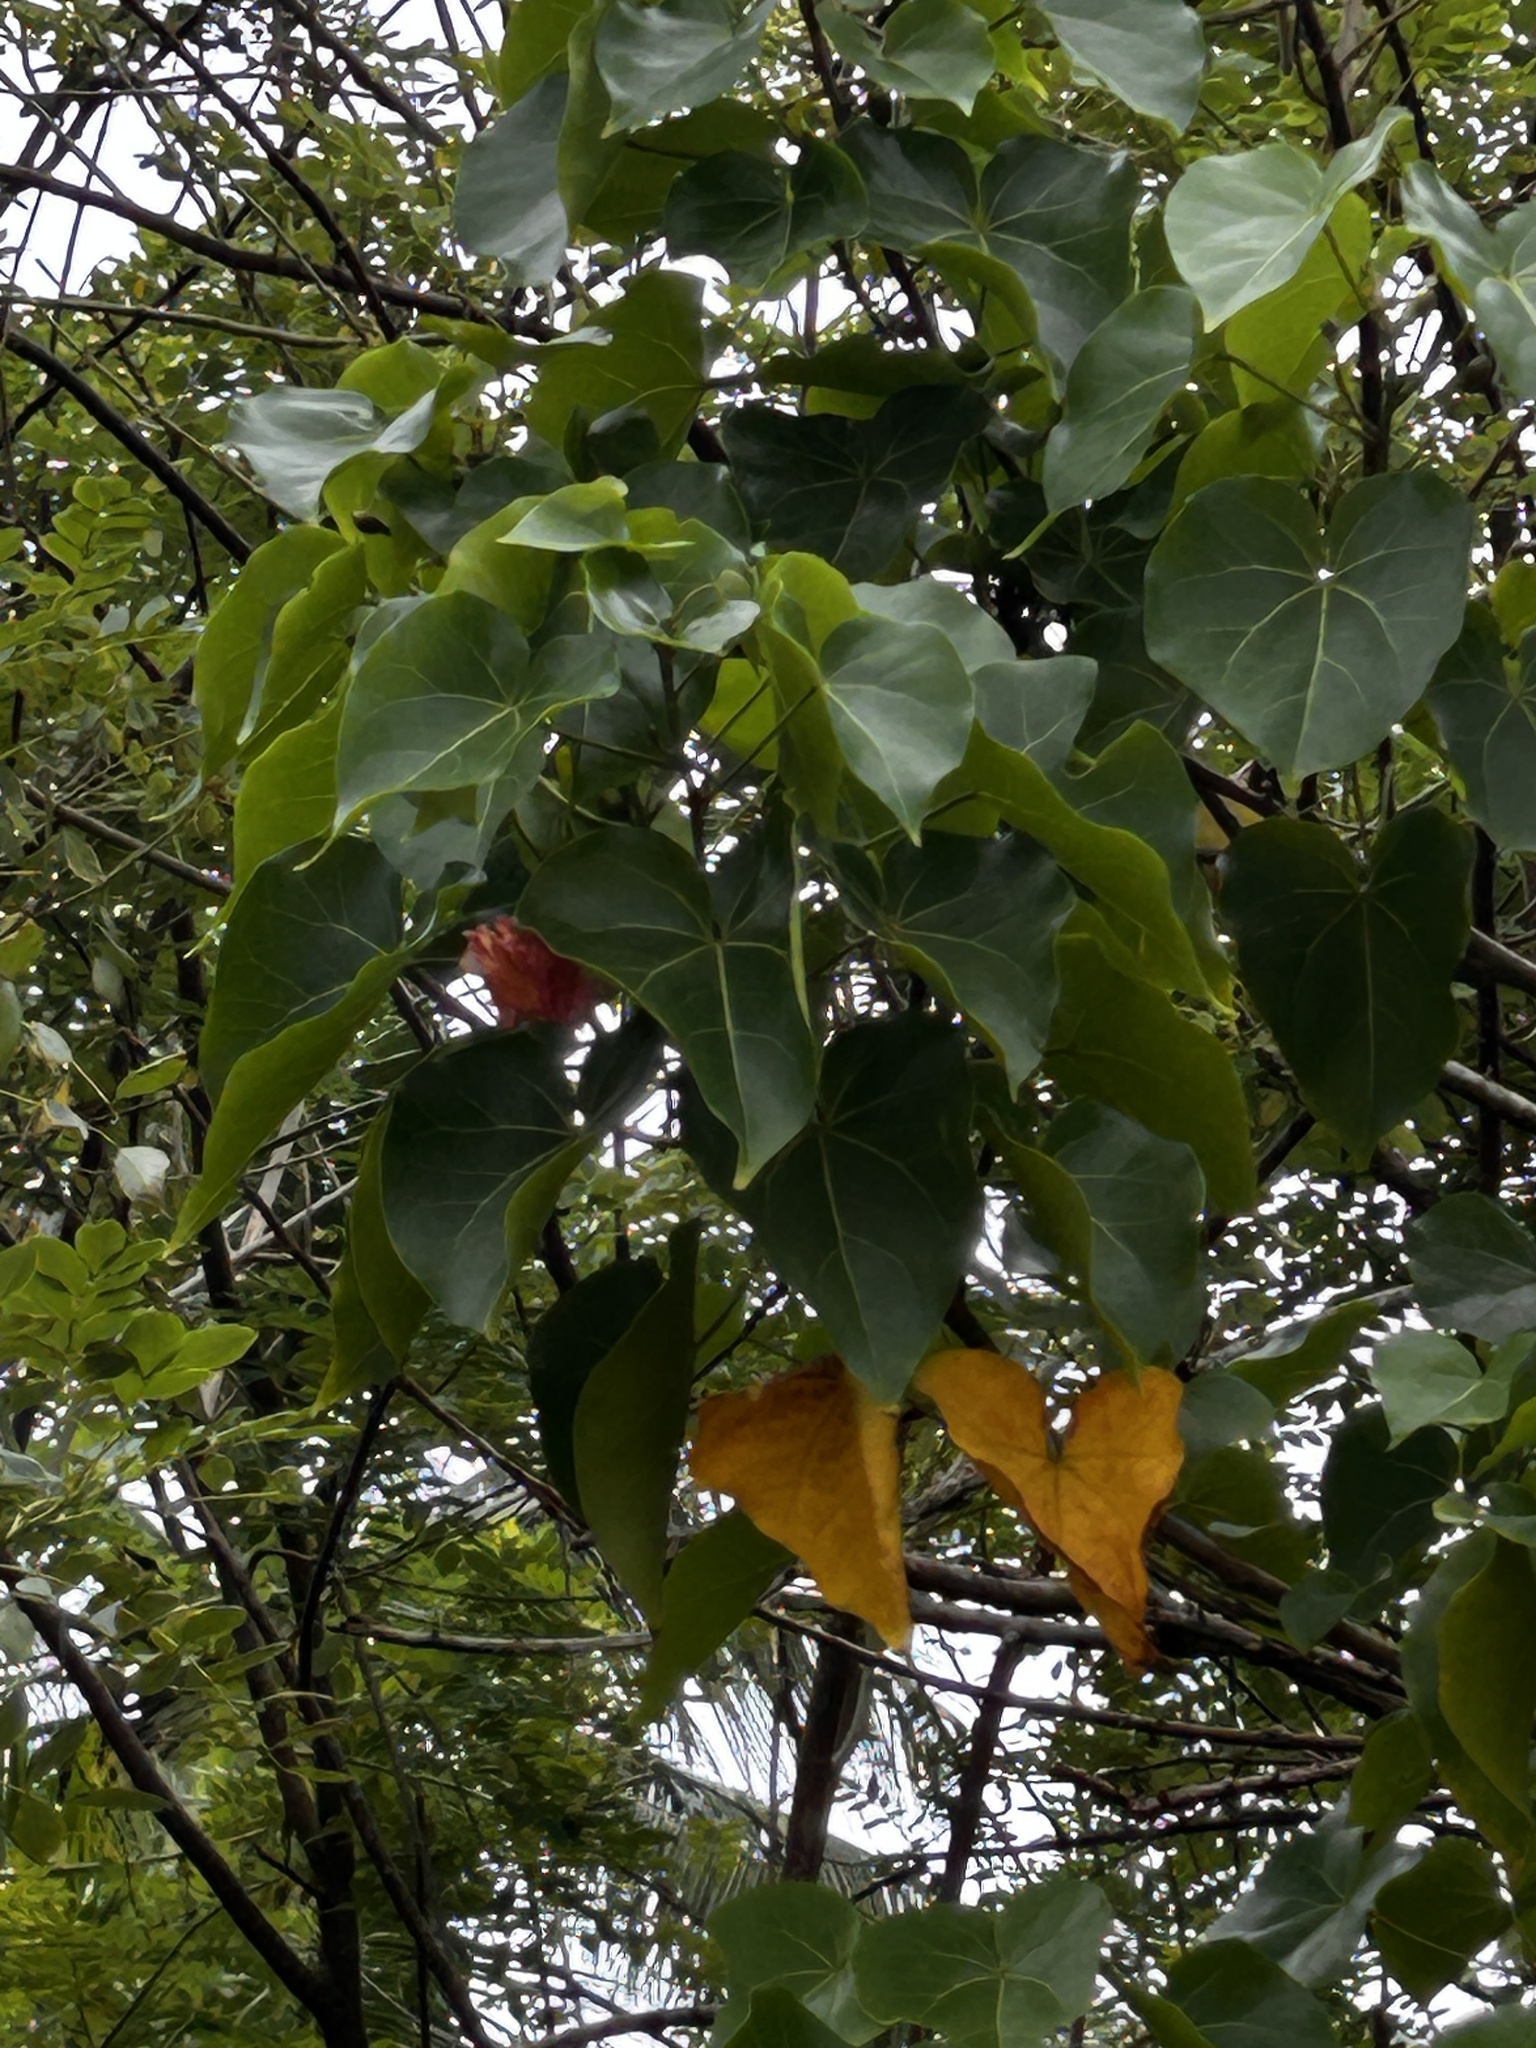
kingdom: Plantae
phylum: Tracheophyta
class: Magnoliopsida
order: Malvales
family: Malvaceae
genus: Thespesia
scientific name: Thespesia populnea
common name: Seaside mahoe
